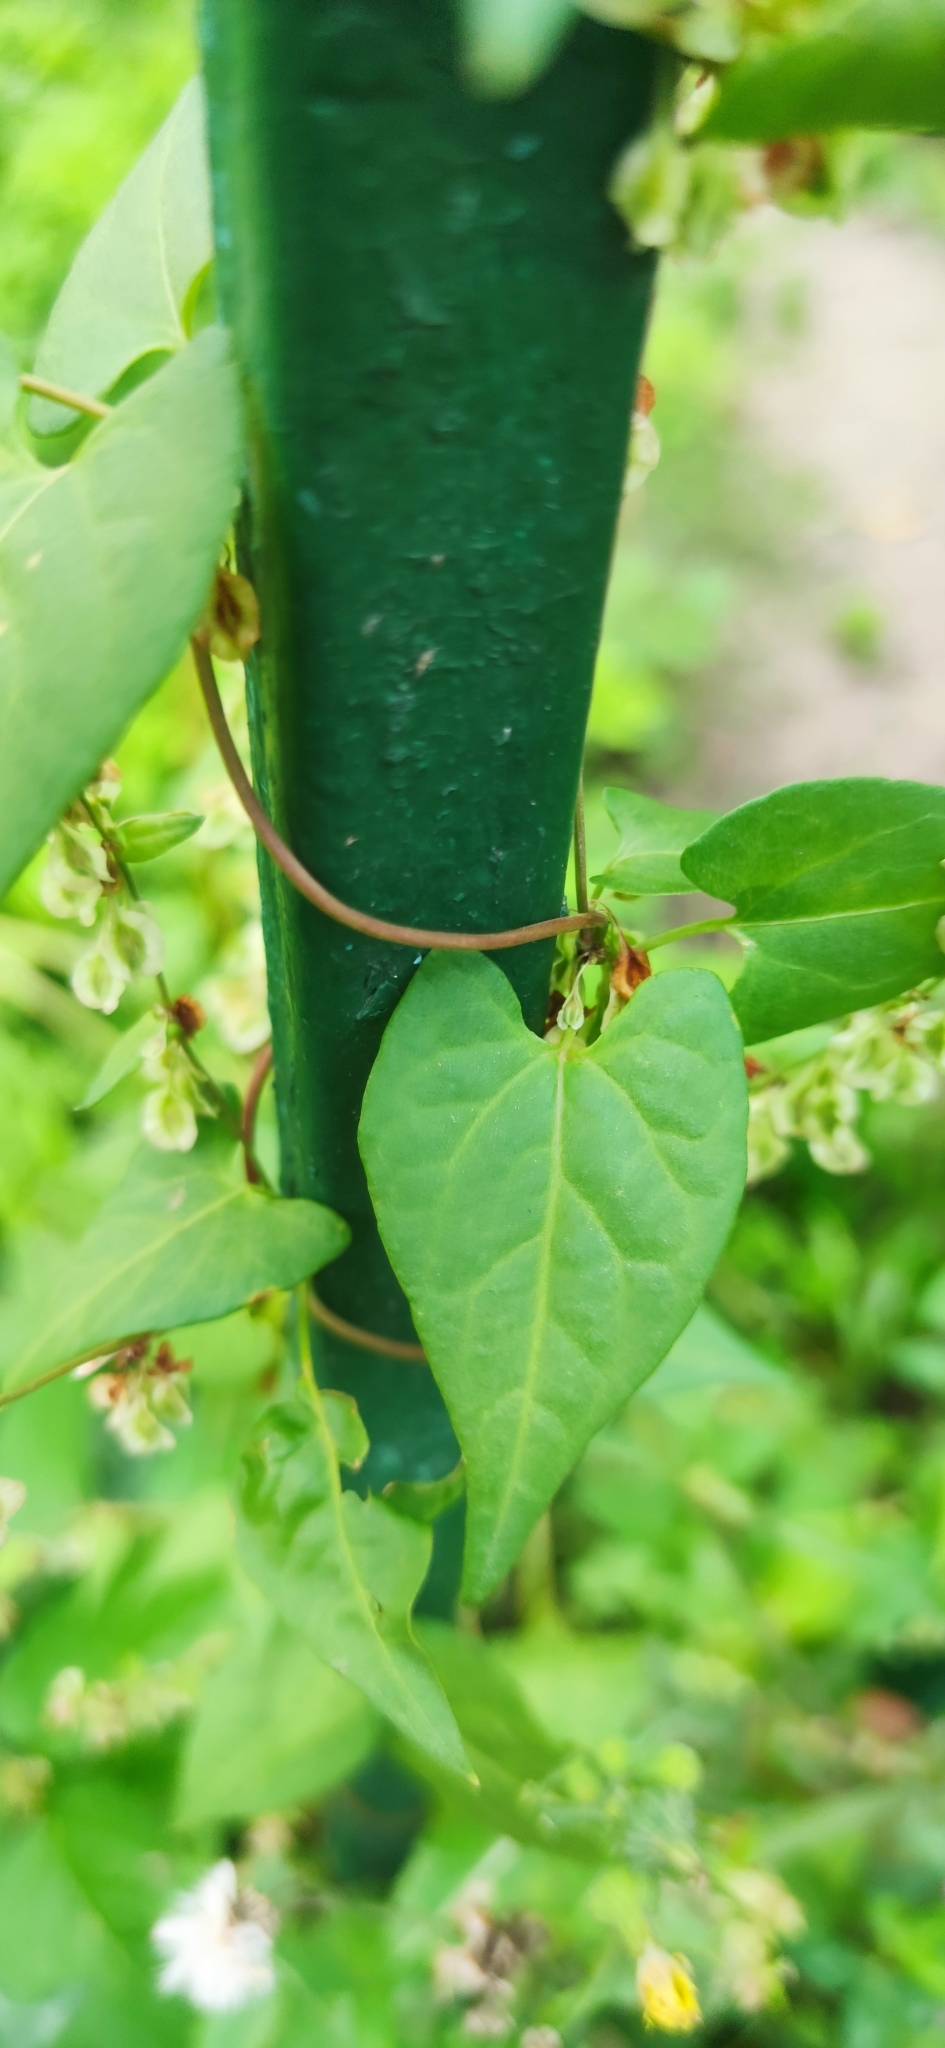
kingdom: Plantae
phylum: Tracheophyta
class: Magnoliopsida
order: Caryophyllales
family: Polygonaceae
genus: Fallopia
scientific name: Fallopia dumetorum
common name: Copse-bindweed
